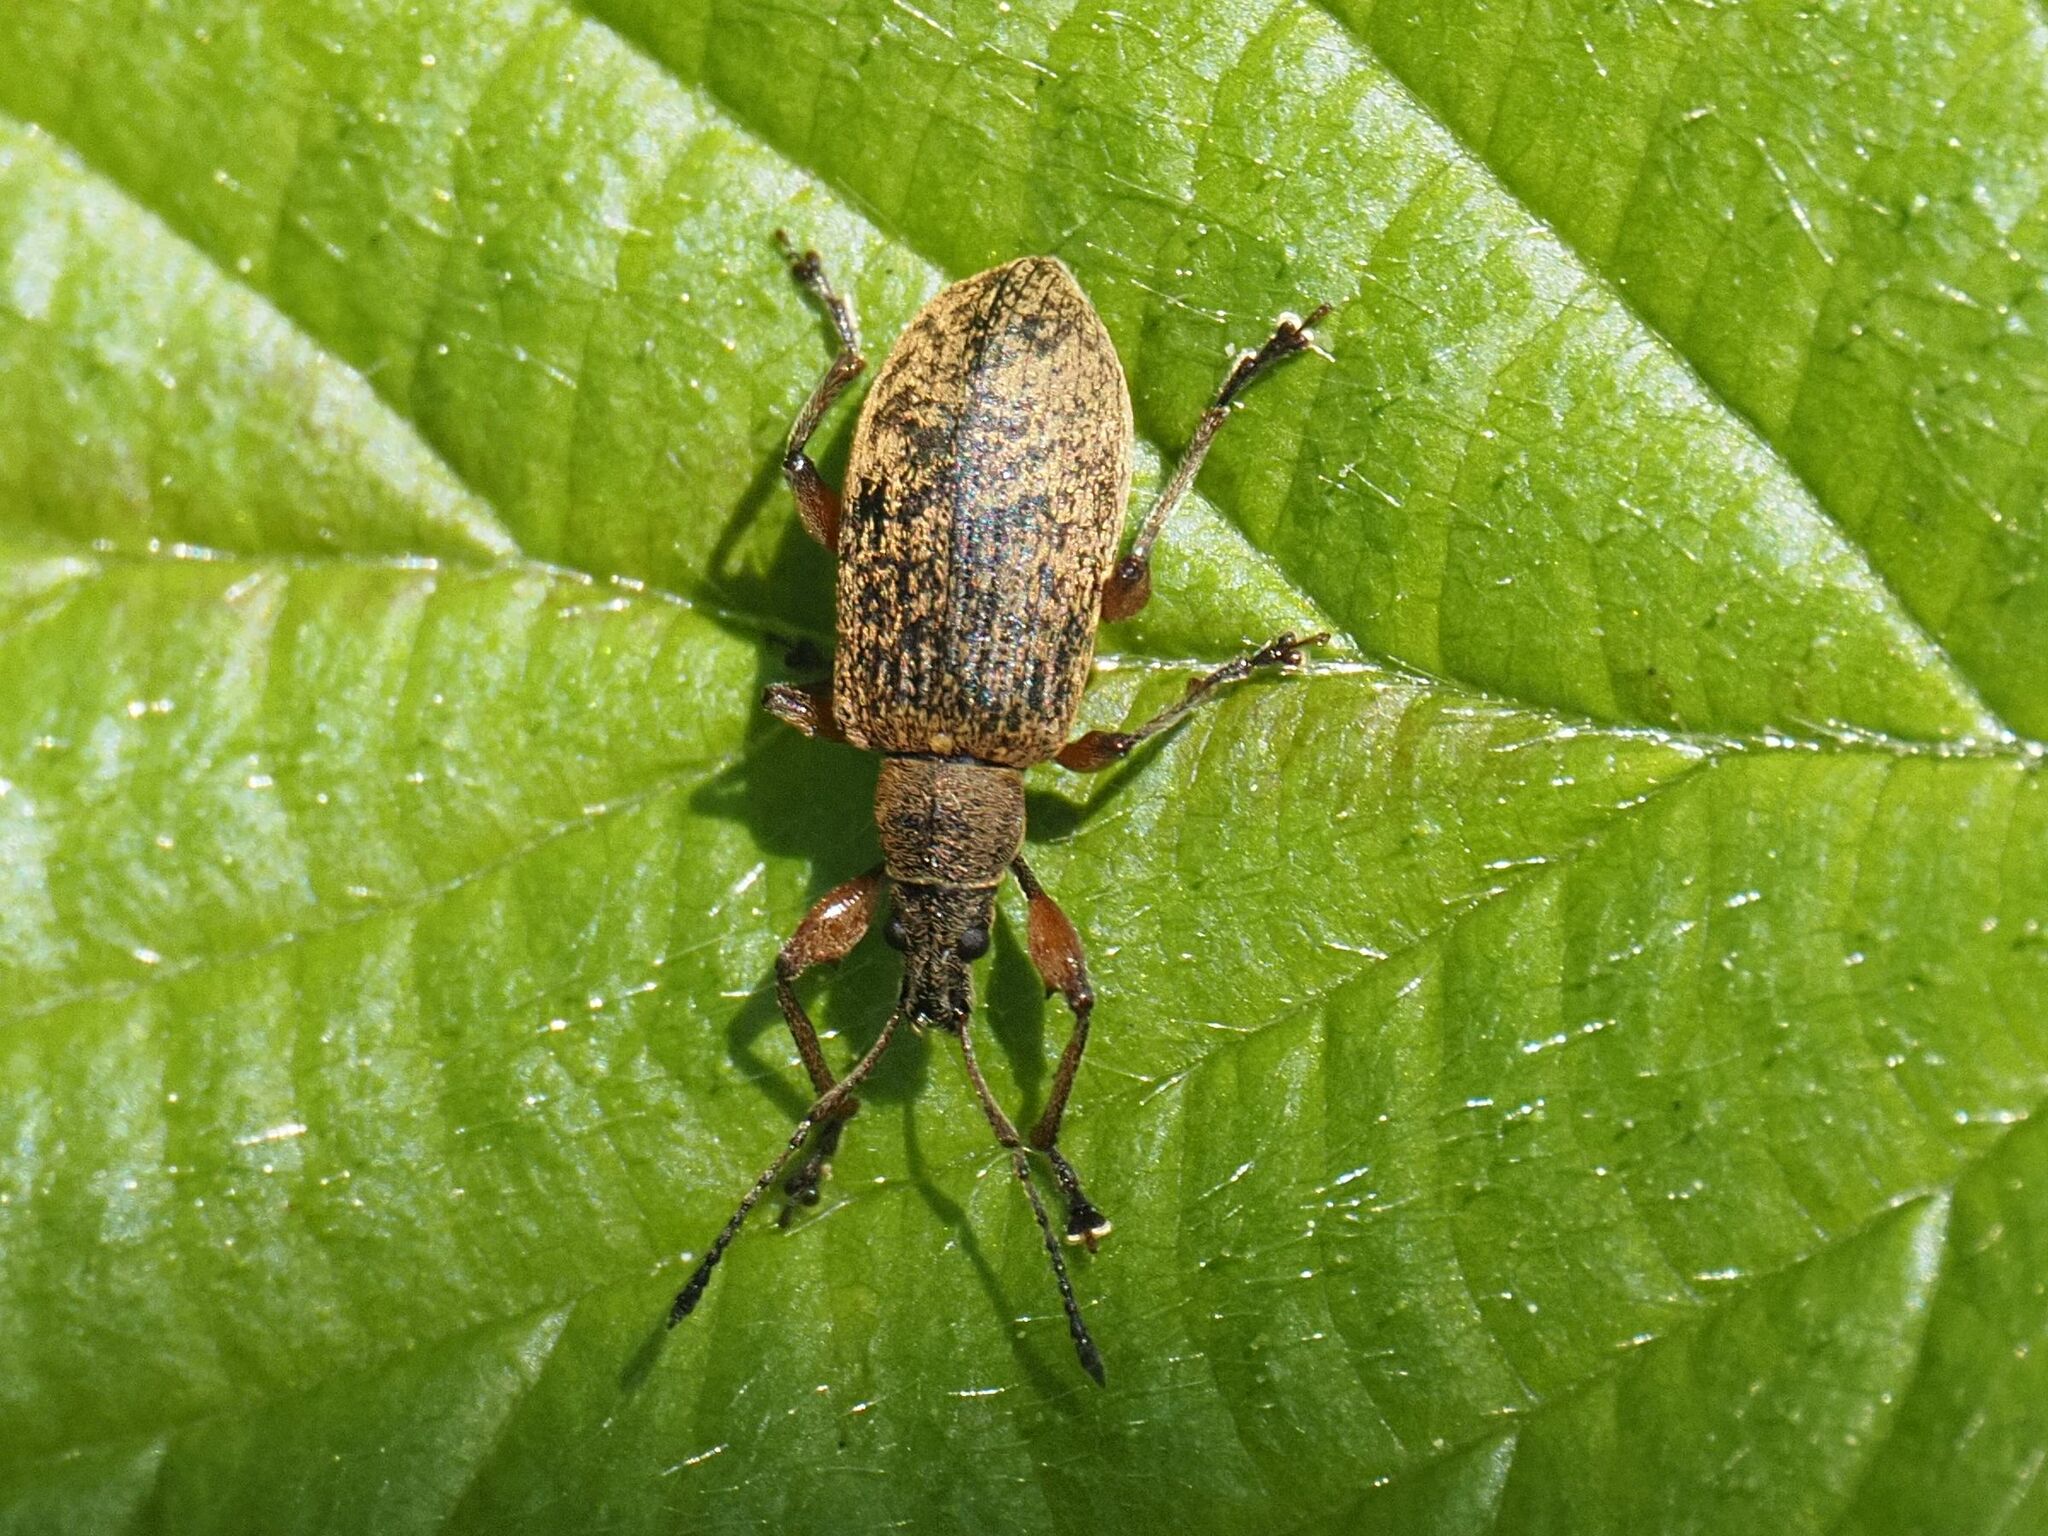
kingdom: Animalia
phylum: Arthropoda
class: Insecta
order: Coleoptera
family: Curculionidae
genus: Phyllobius
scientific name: Phyllobius glaucus
